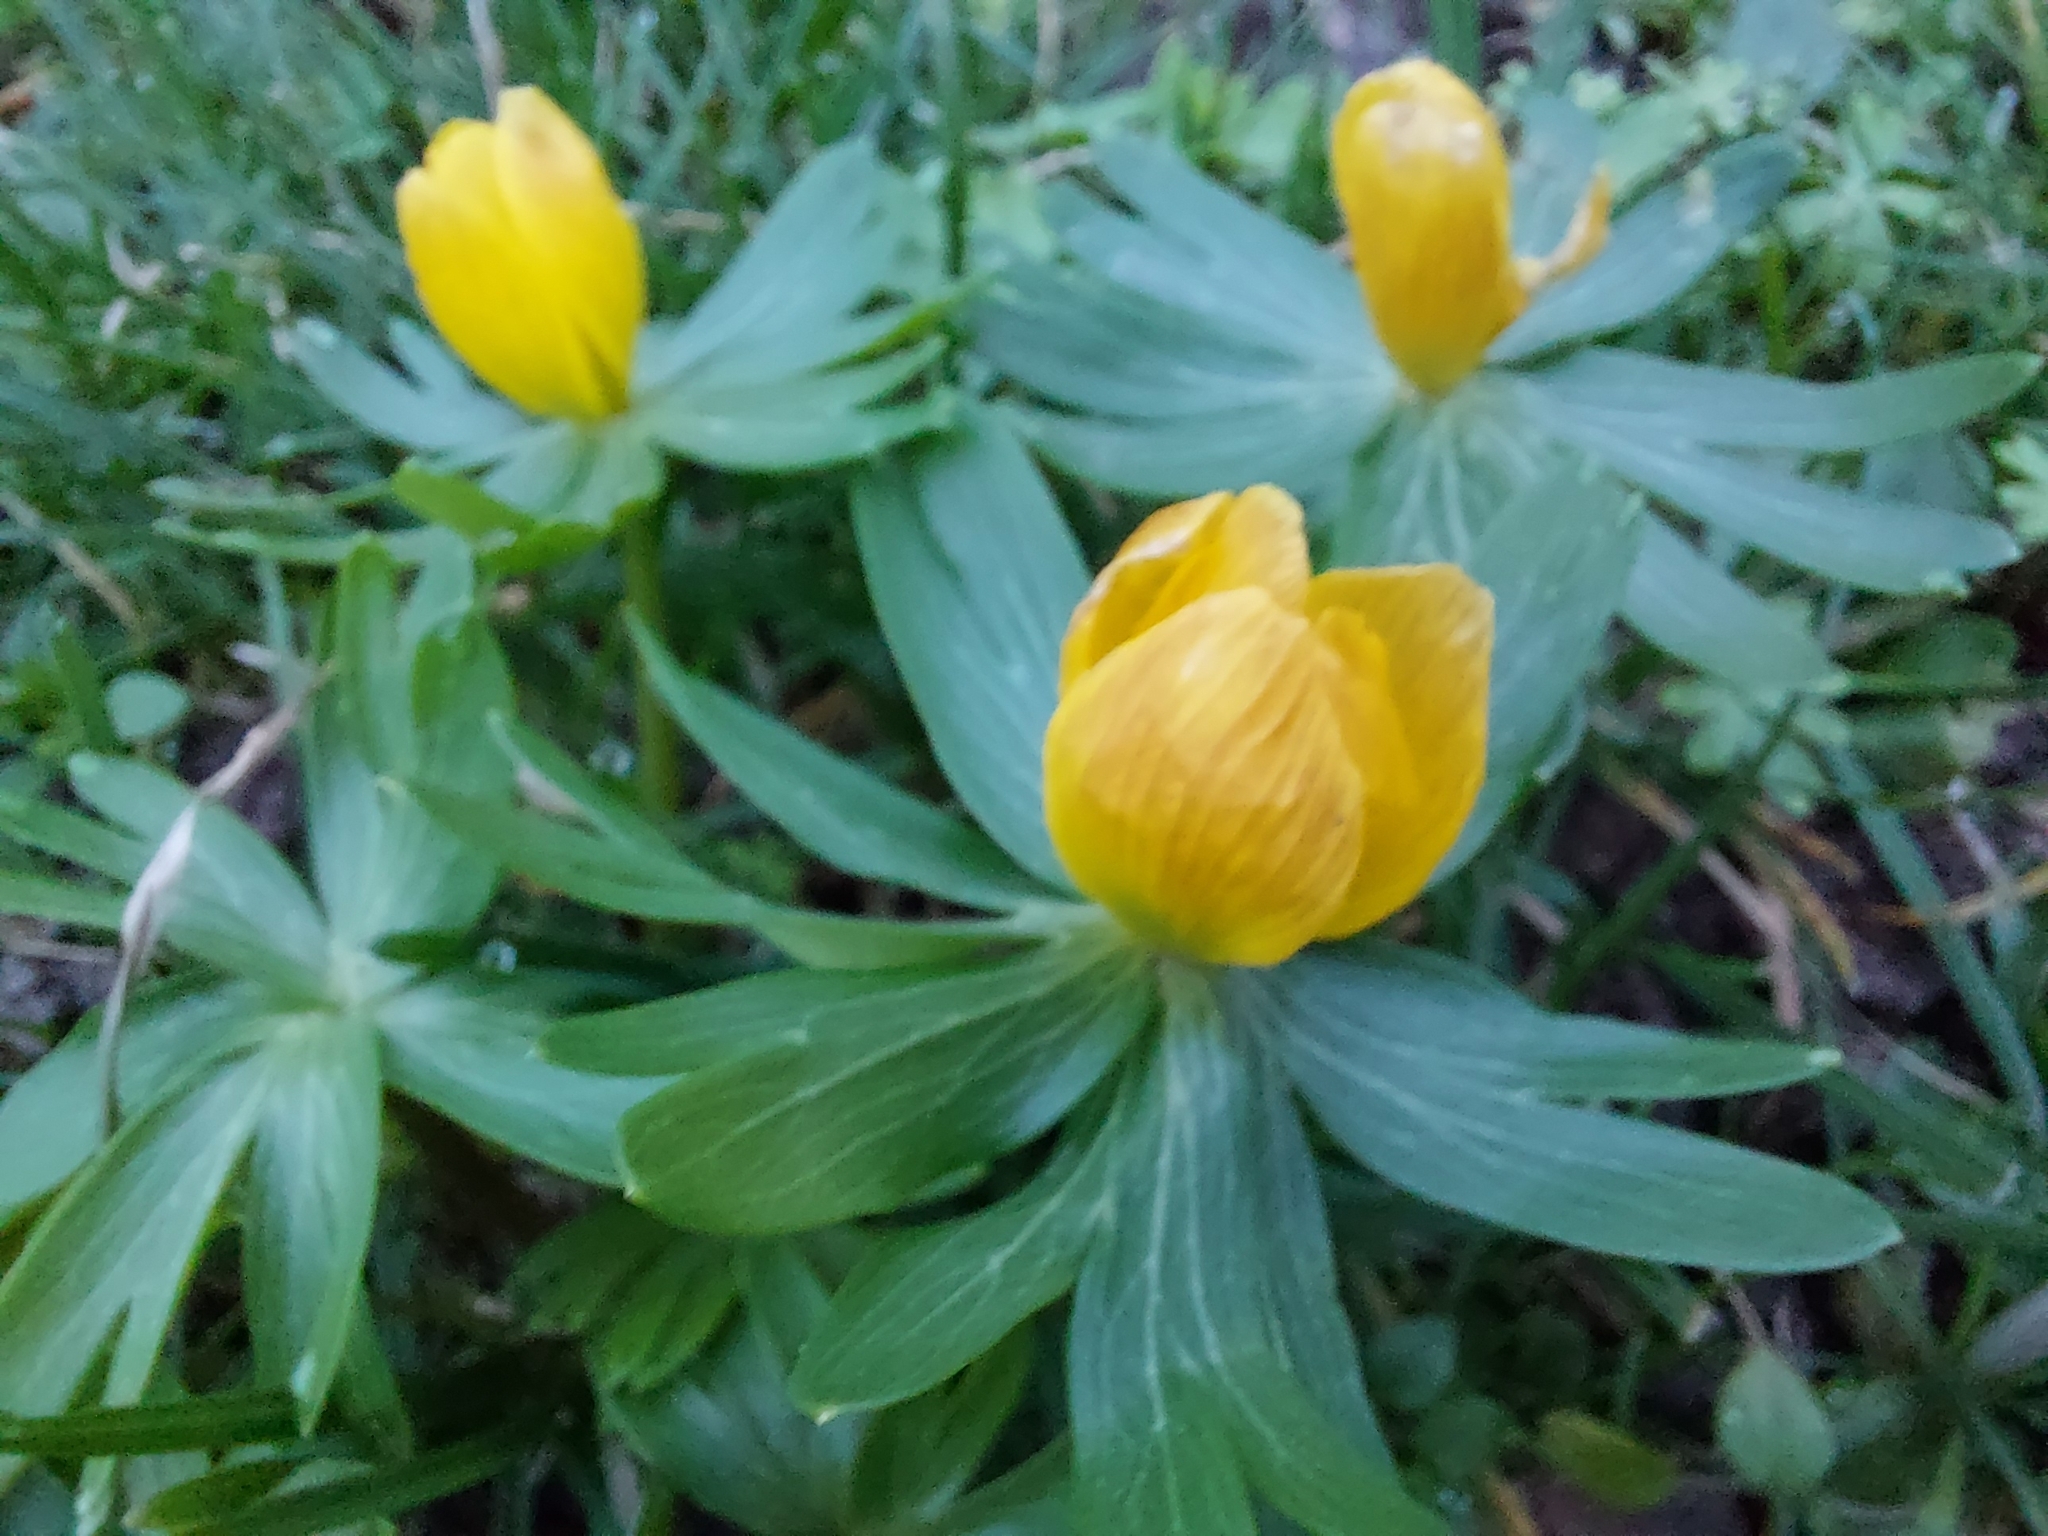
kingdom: Plantae
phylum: Tracheophyta
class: Magnoliopsida
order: Ranunculales
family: Ranunculaceae
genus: Eranthis
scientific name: Eranthis hyemalis
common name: Winter aconite
